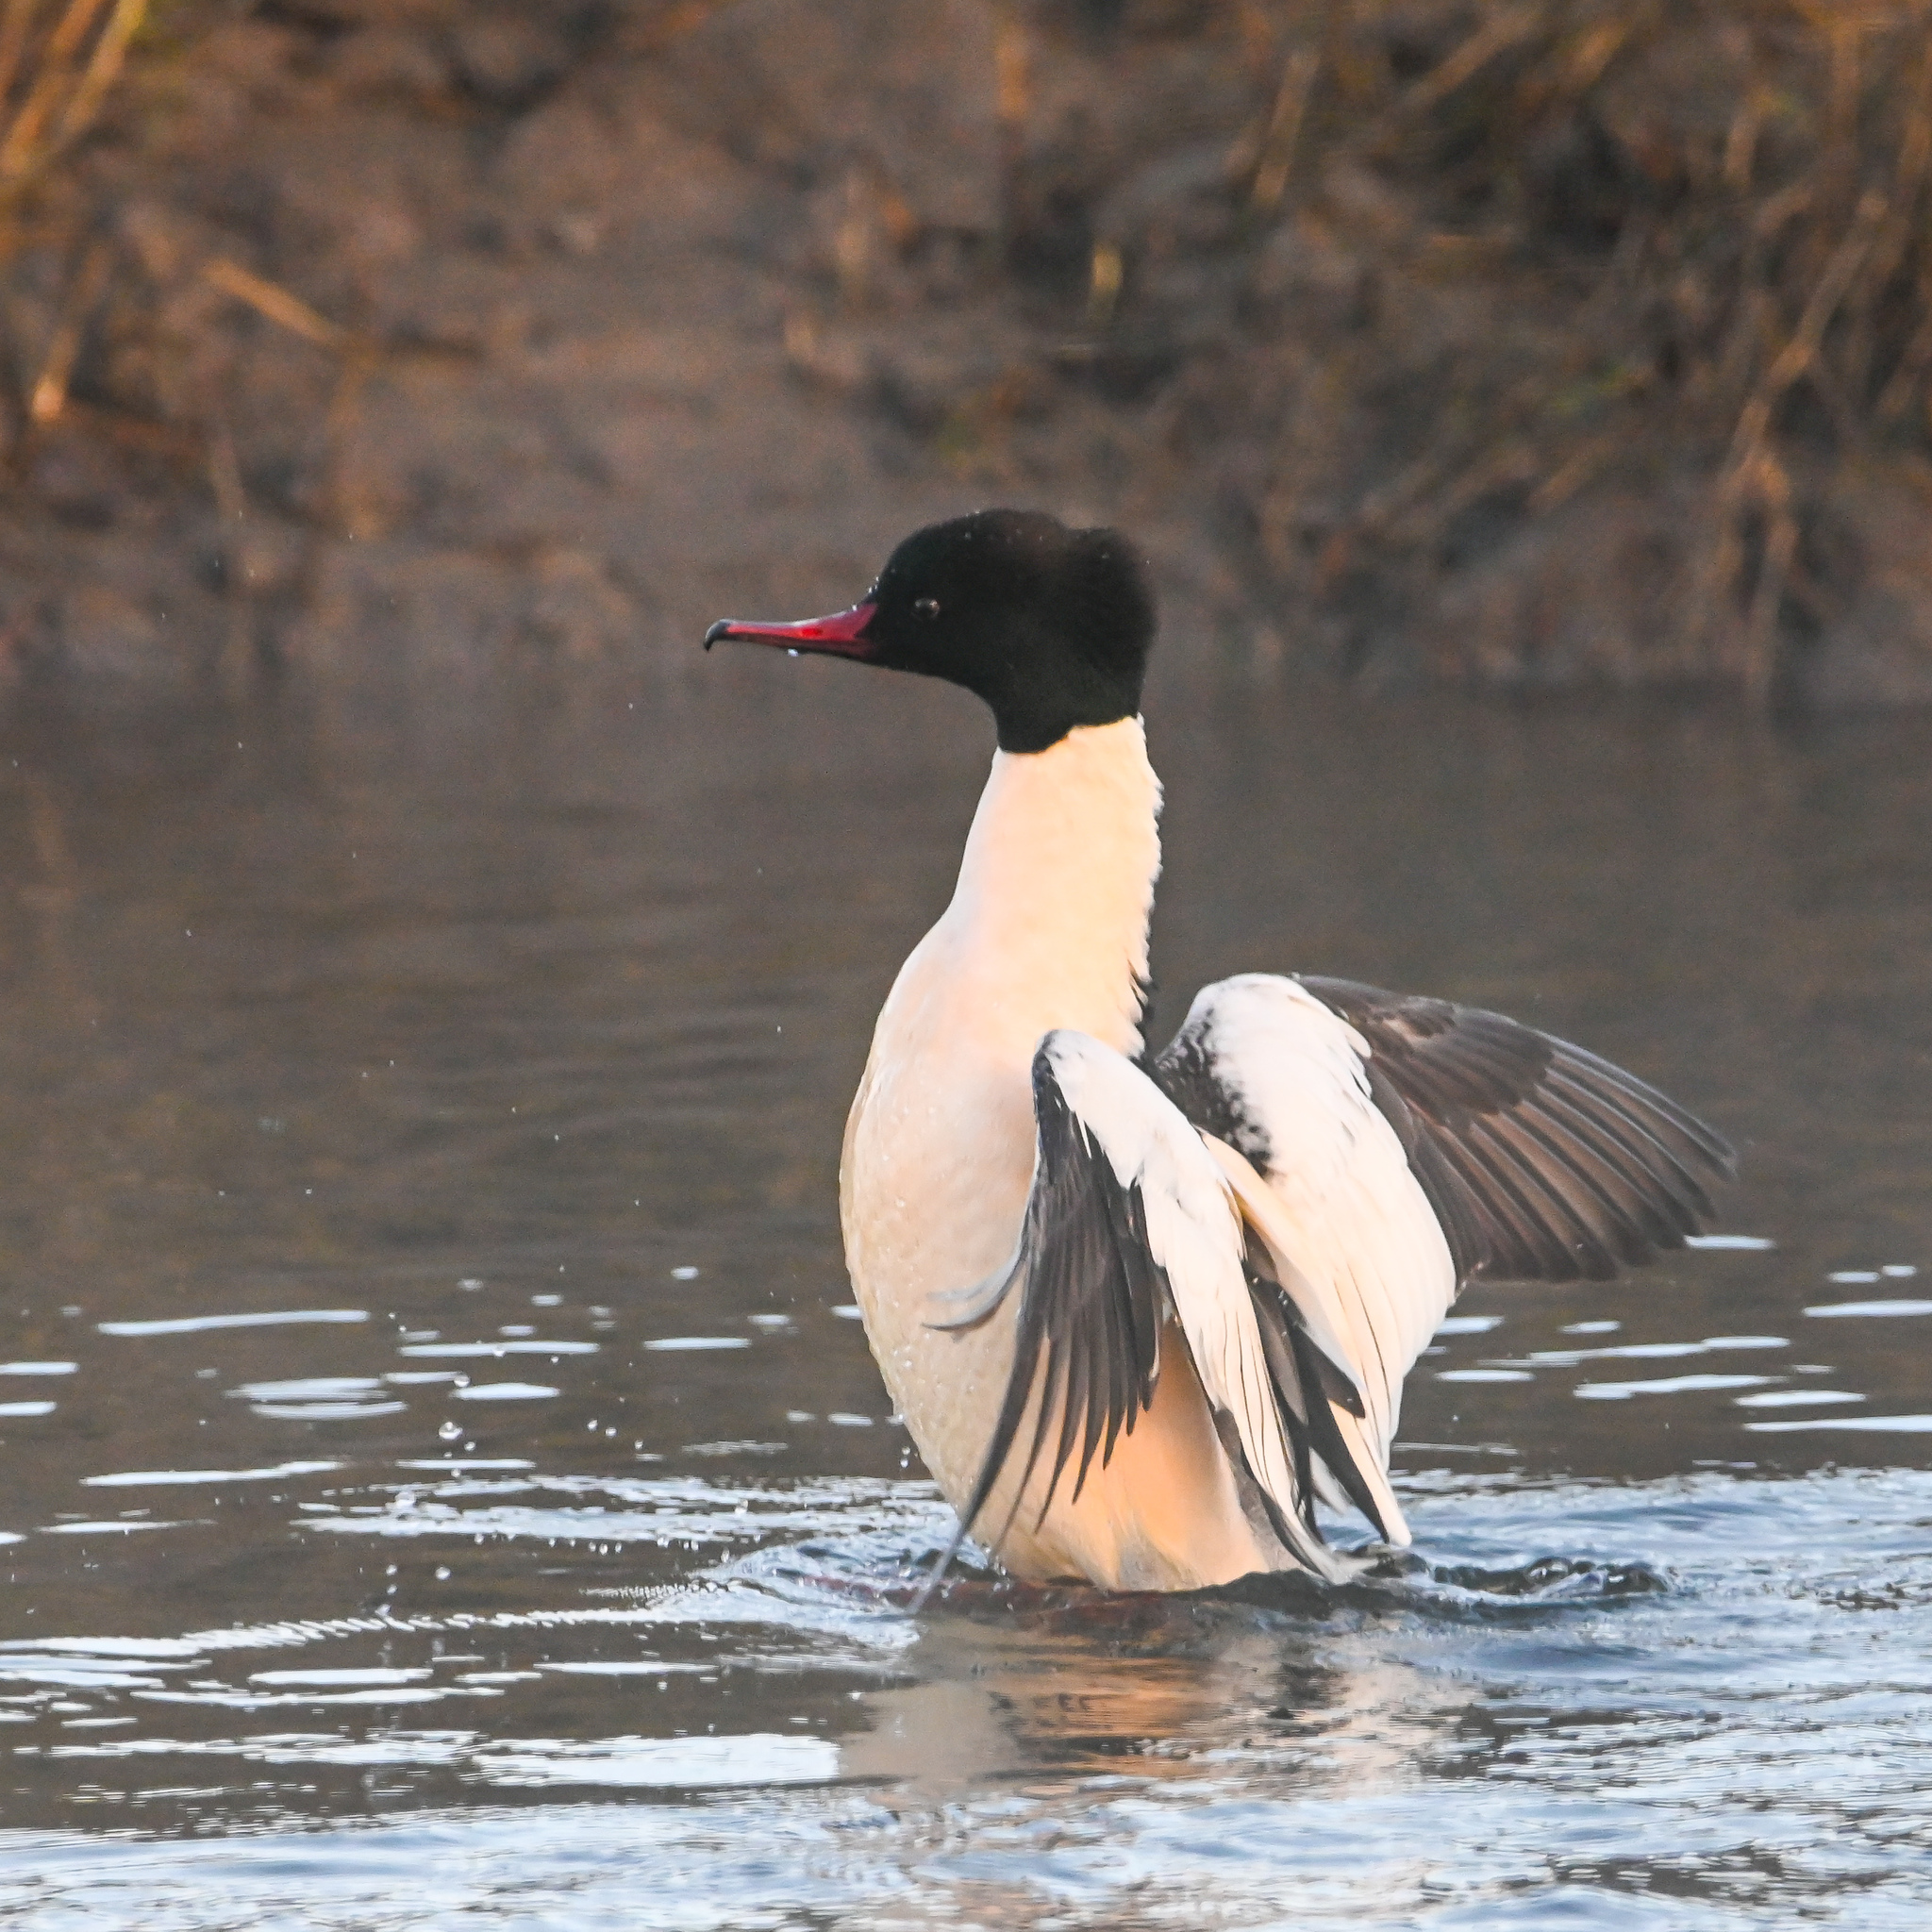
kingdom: Animalia
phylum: Chordata
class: Aves
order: Anseriformes
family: Anatidae
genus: Mergus
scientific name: Mergus merganser
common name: Common merganser
